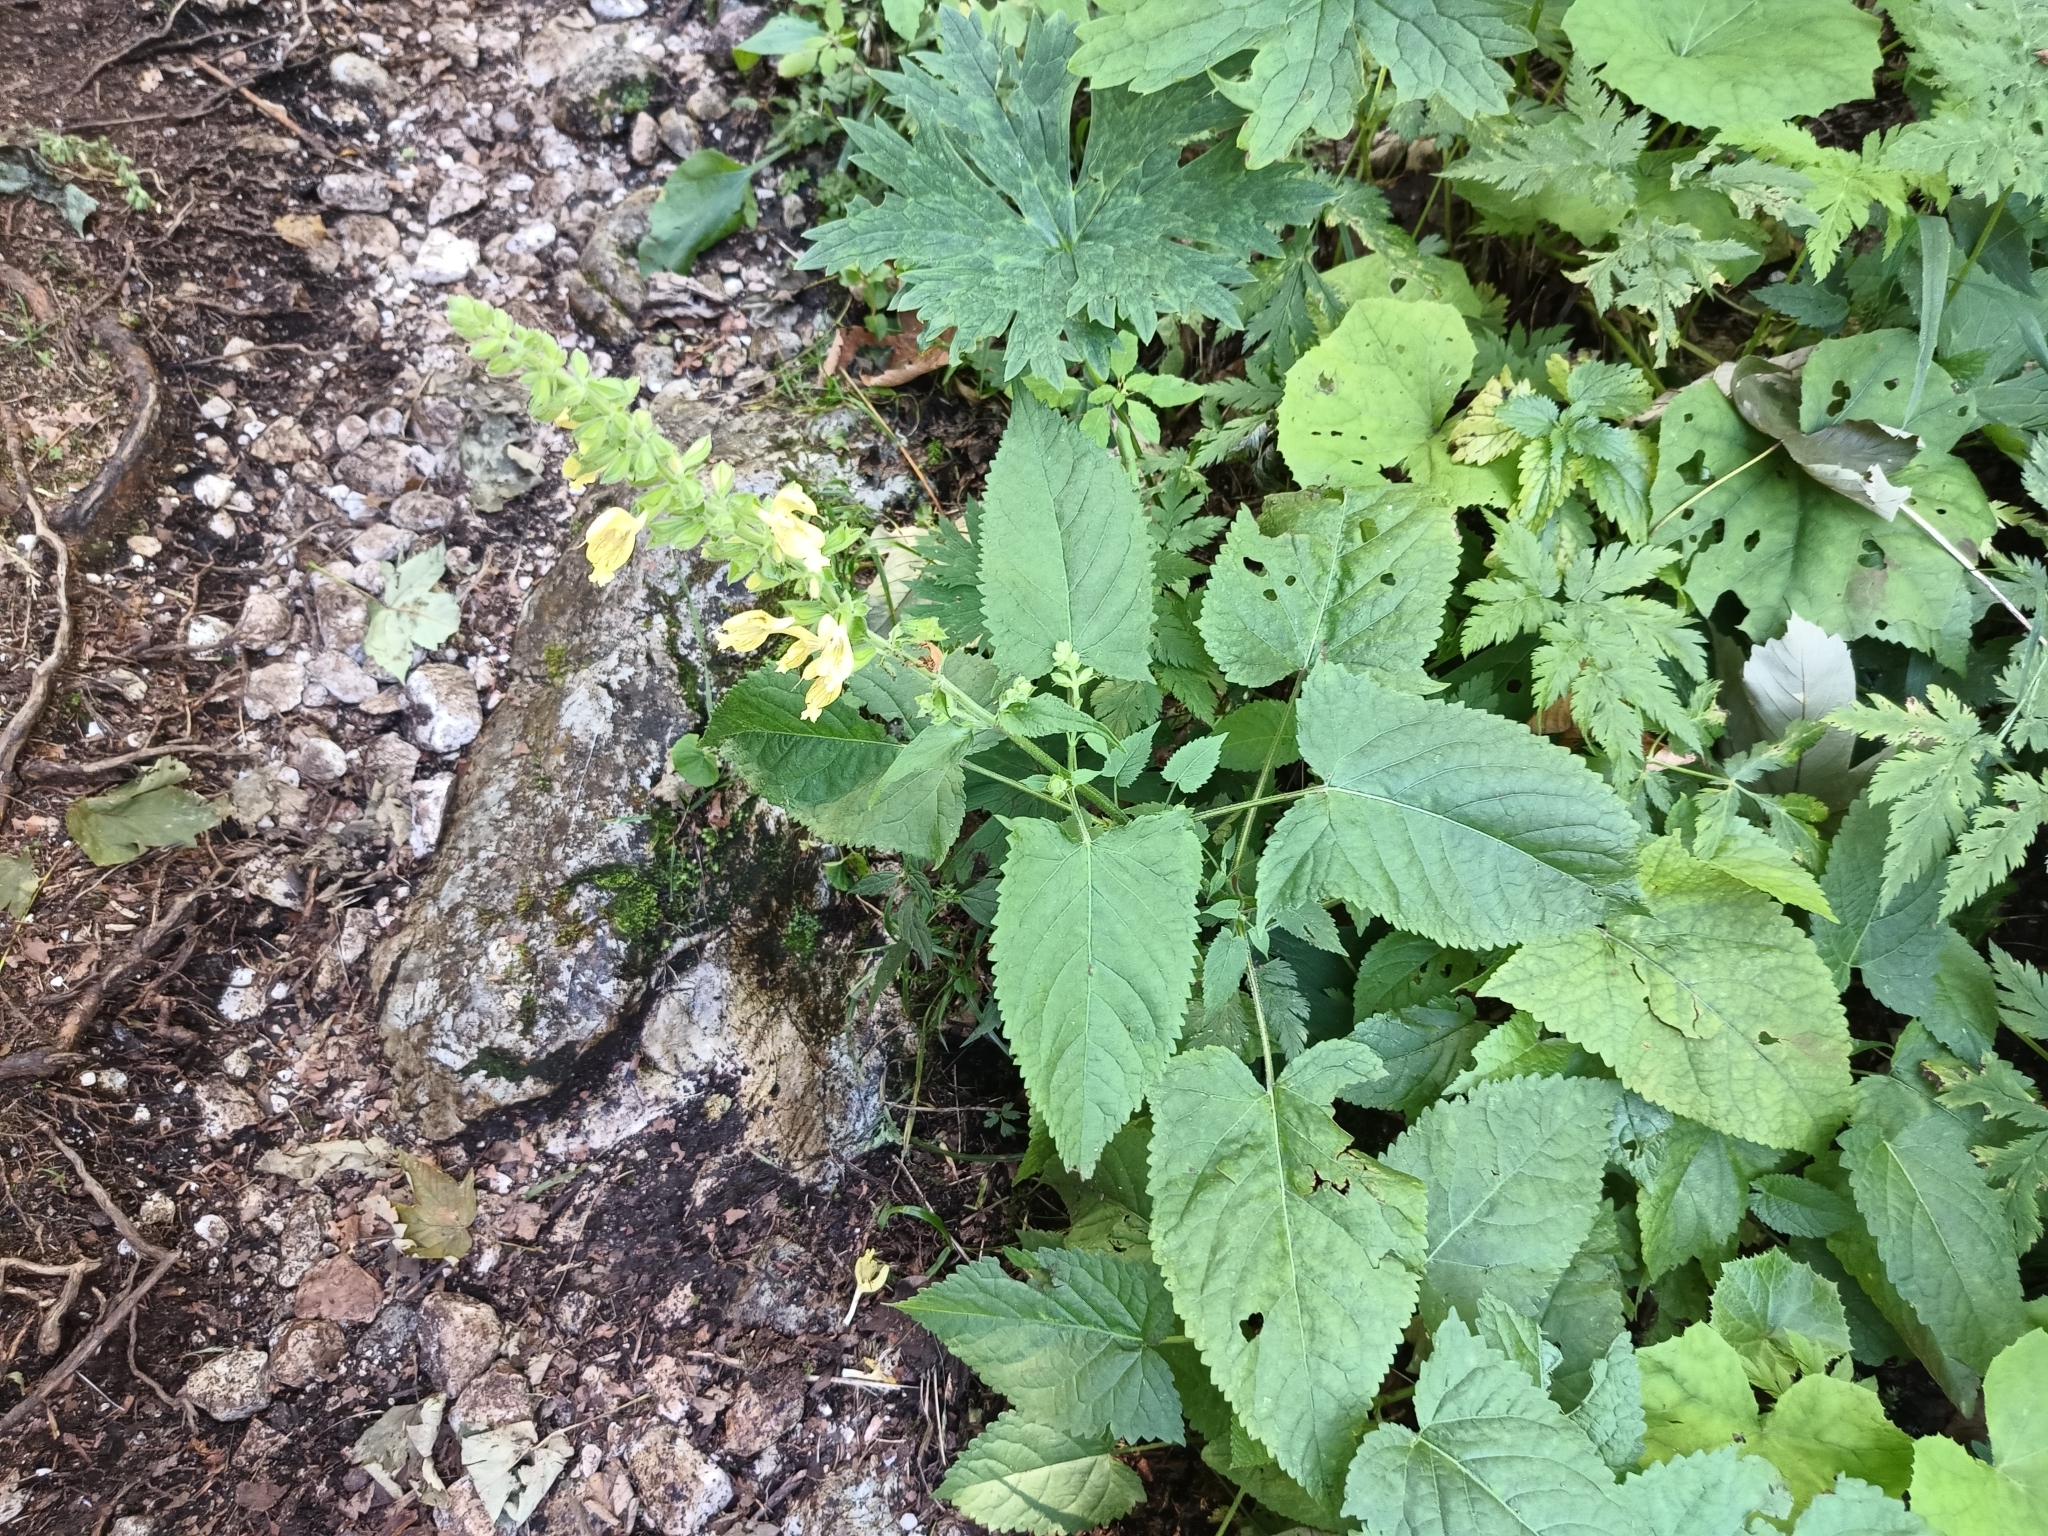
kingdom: Plantae
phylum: Tracheophyta
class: Magnoliopsida
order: Lamiales
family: Lamiaceae
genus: Salvia
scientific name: Salvia glutinosa
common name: Sticky clary
